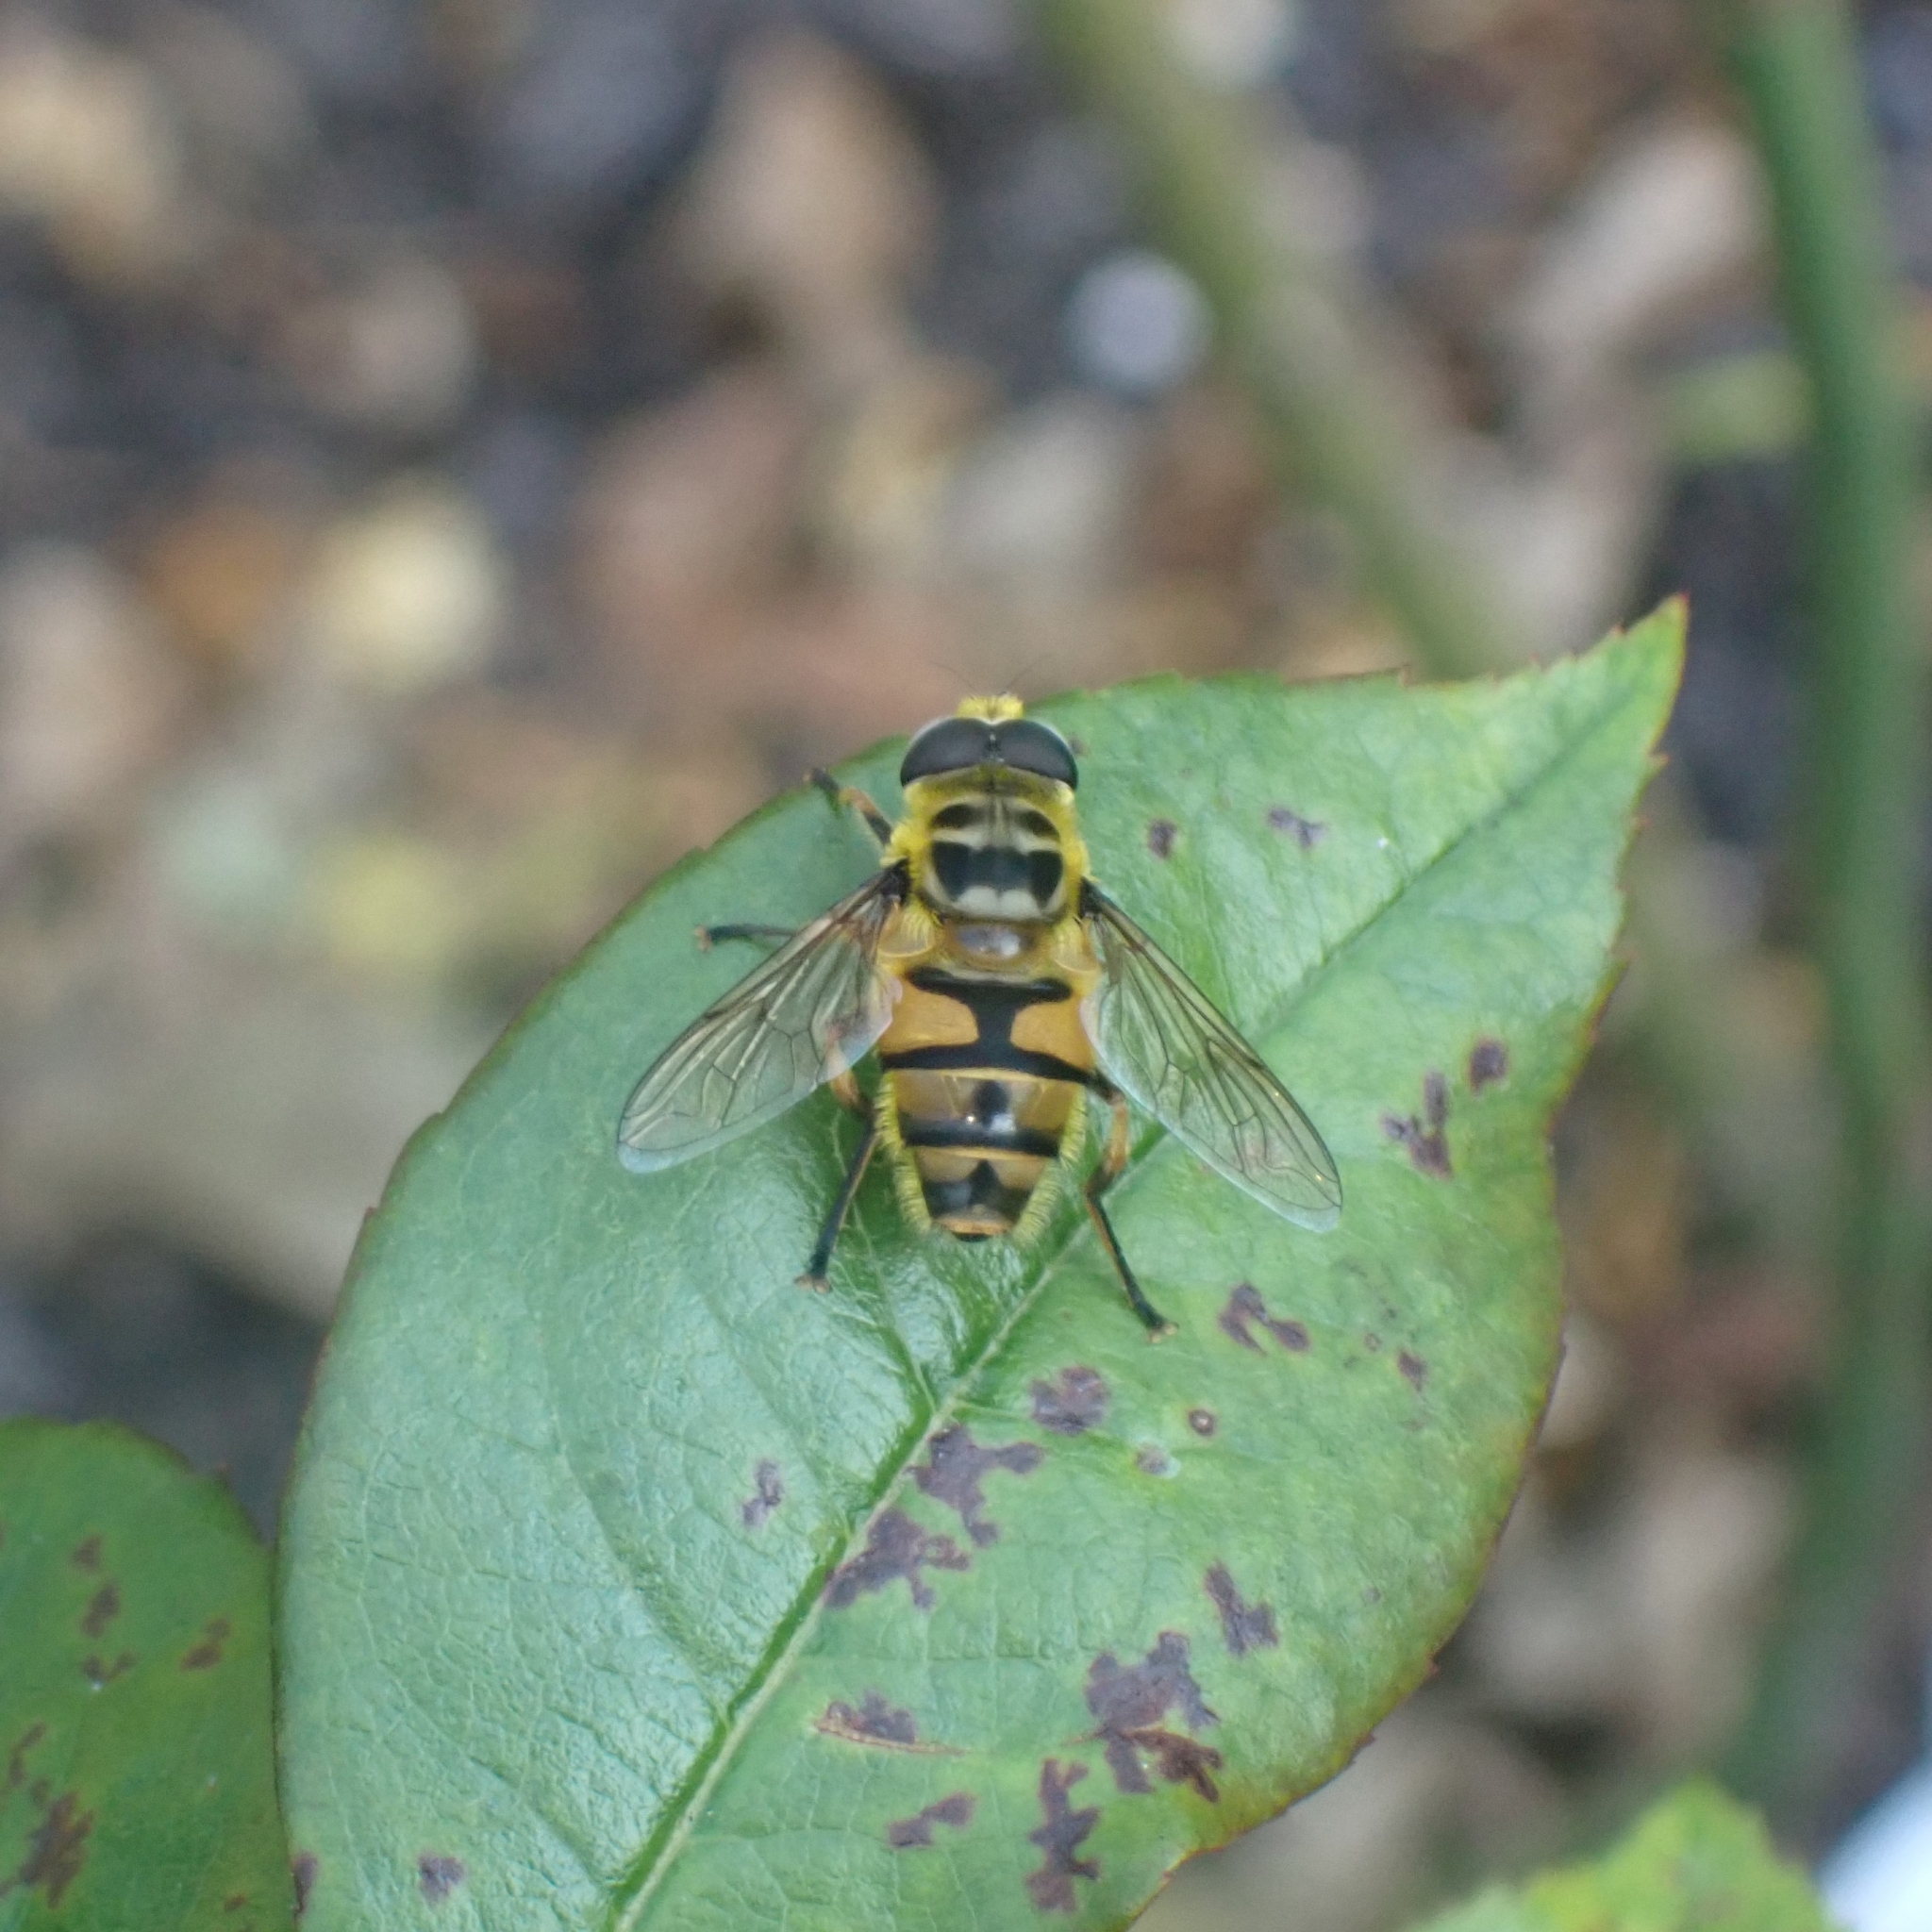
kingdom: Animalia
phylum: Arthropoda
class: Insecta
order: Diptera
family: Syrphidae
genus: Myathropa
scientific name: Myathropa florea
